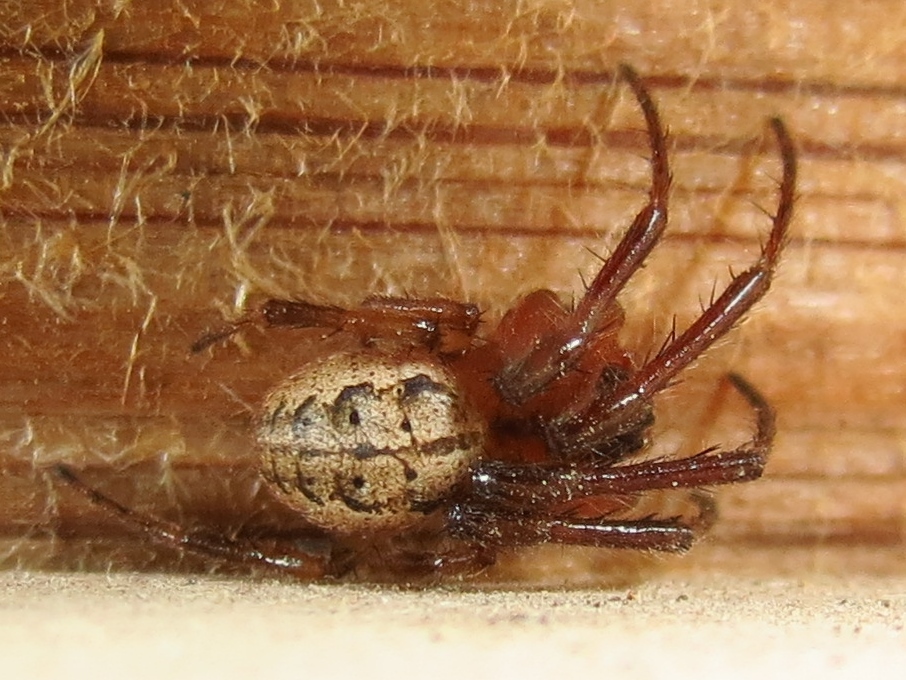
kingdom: Animalia
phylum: Arthropoda
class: Arachnida
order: Araneae
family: Araneidae
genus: Metazygia
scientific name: Metazygia wittfeldae
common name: Orb weavers
